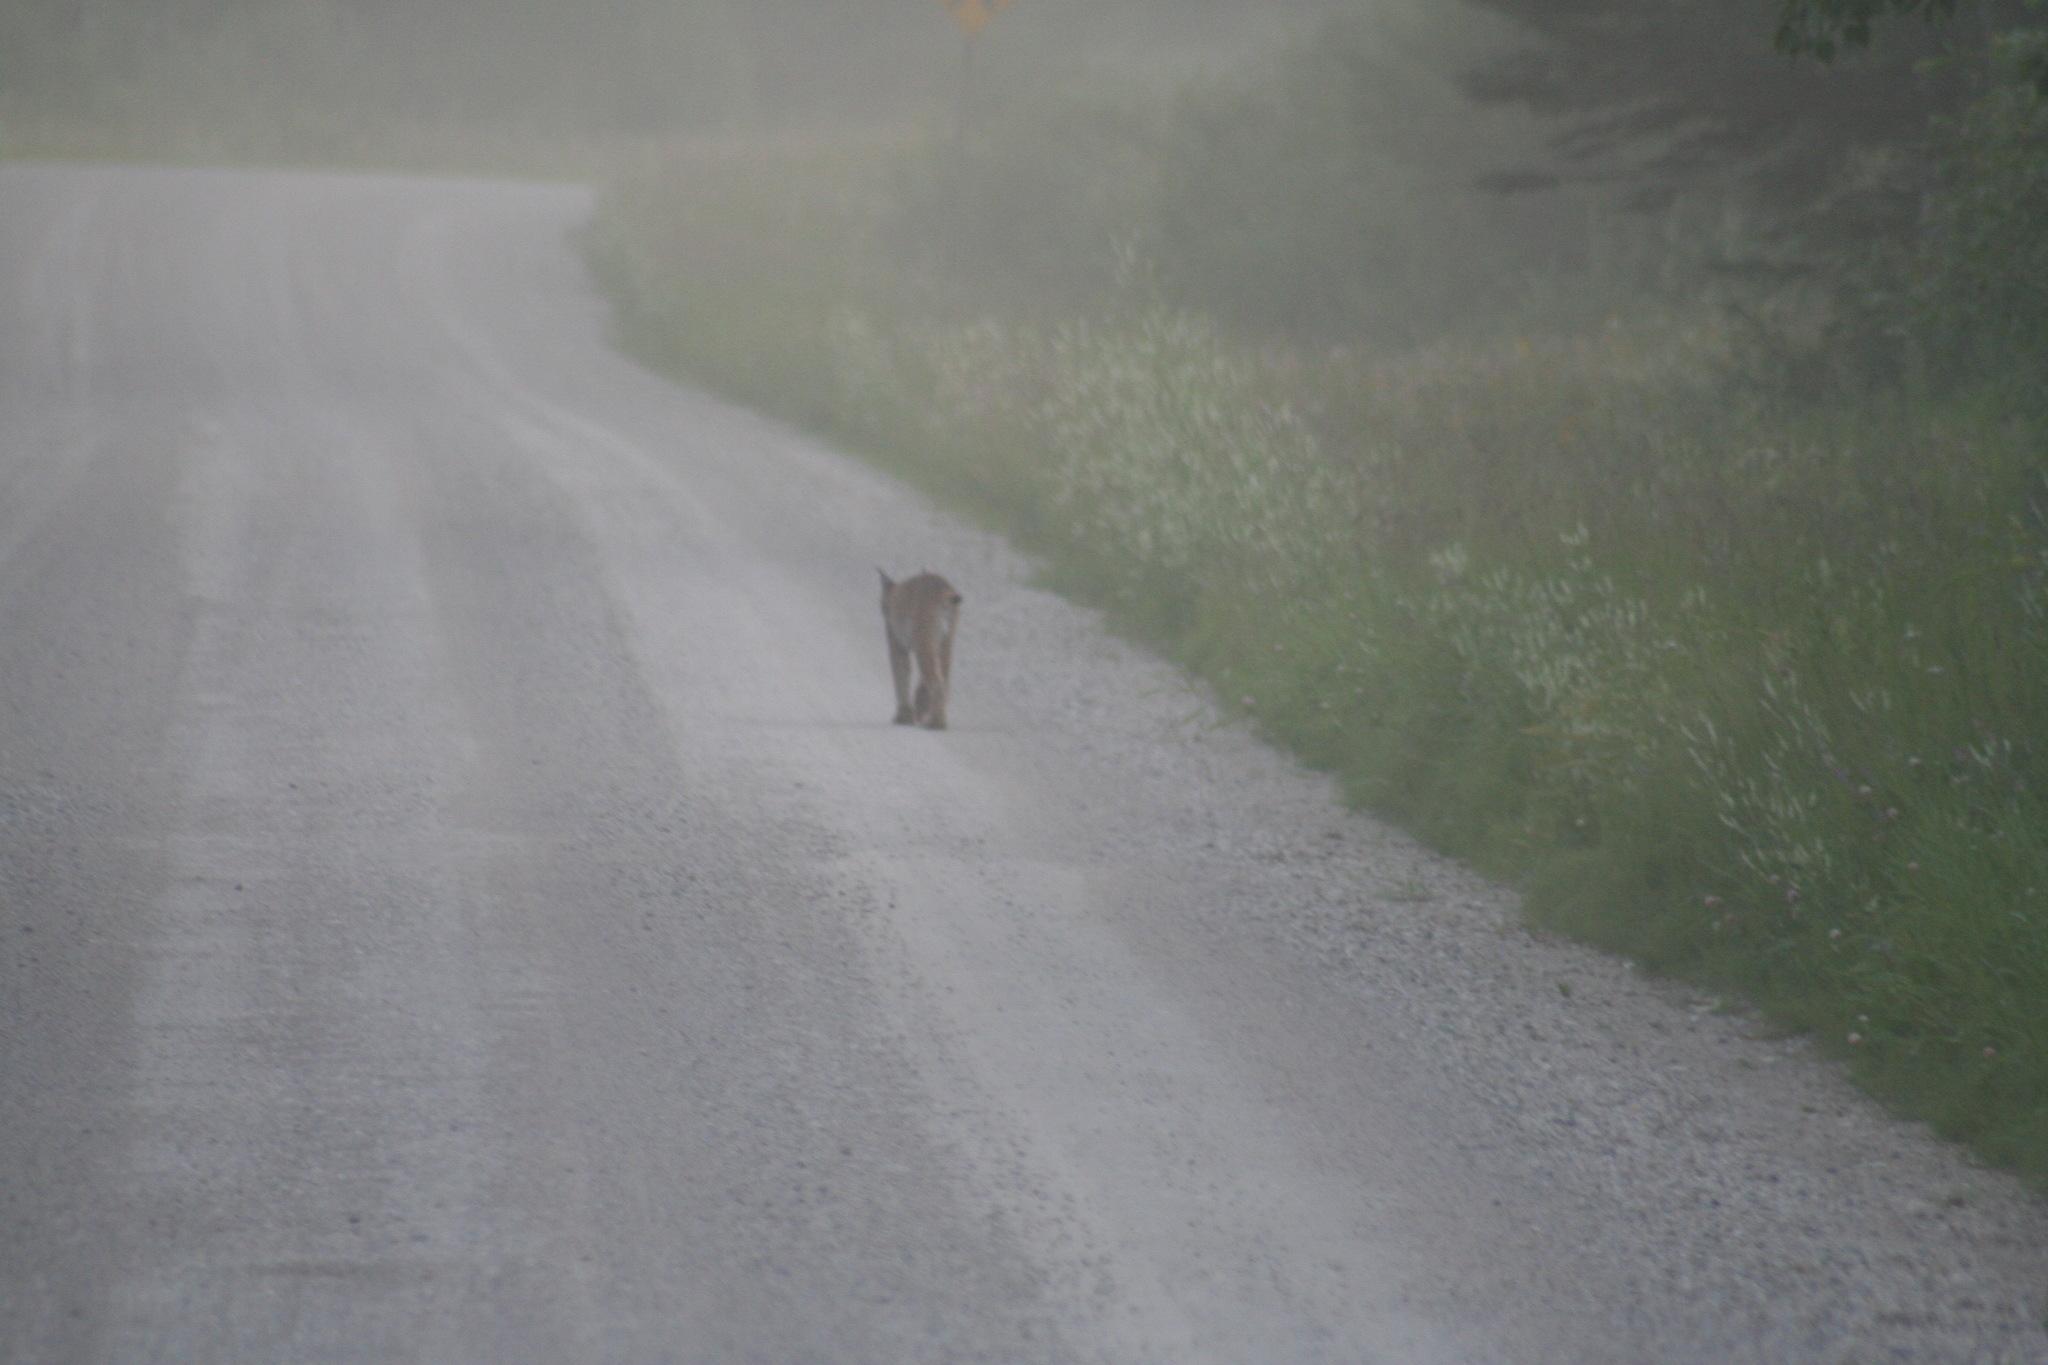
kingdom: Animalia
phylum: Chordata
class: Mammalia
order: Carnivora
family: Felidae
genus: Lynx
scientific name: Lynx canadensis
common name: Canadian lynx
